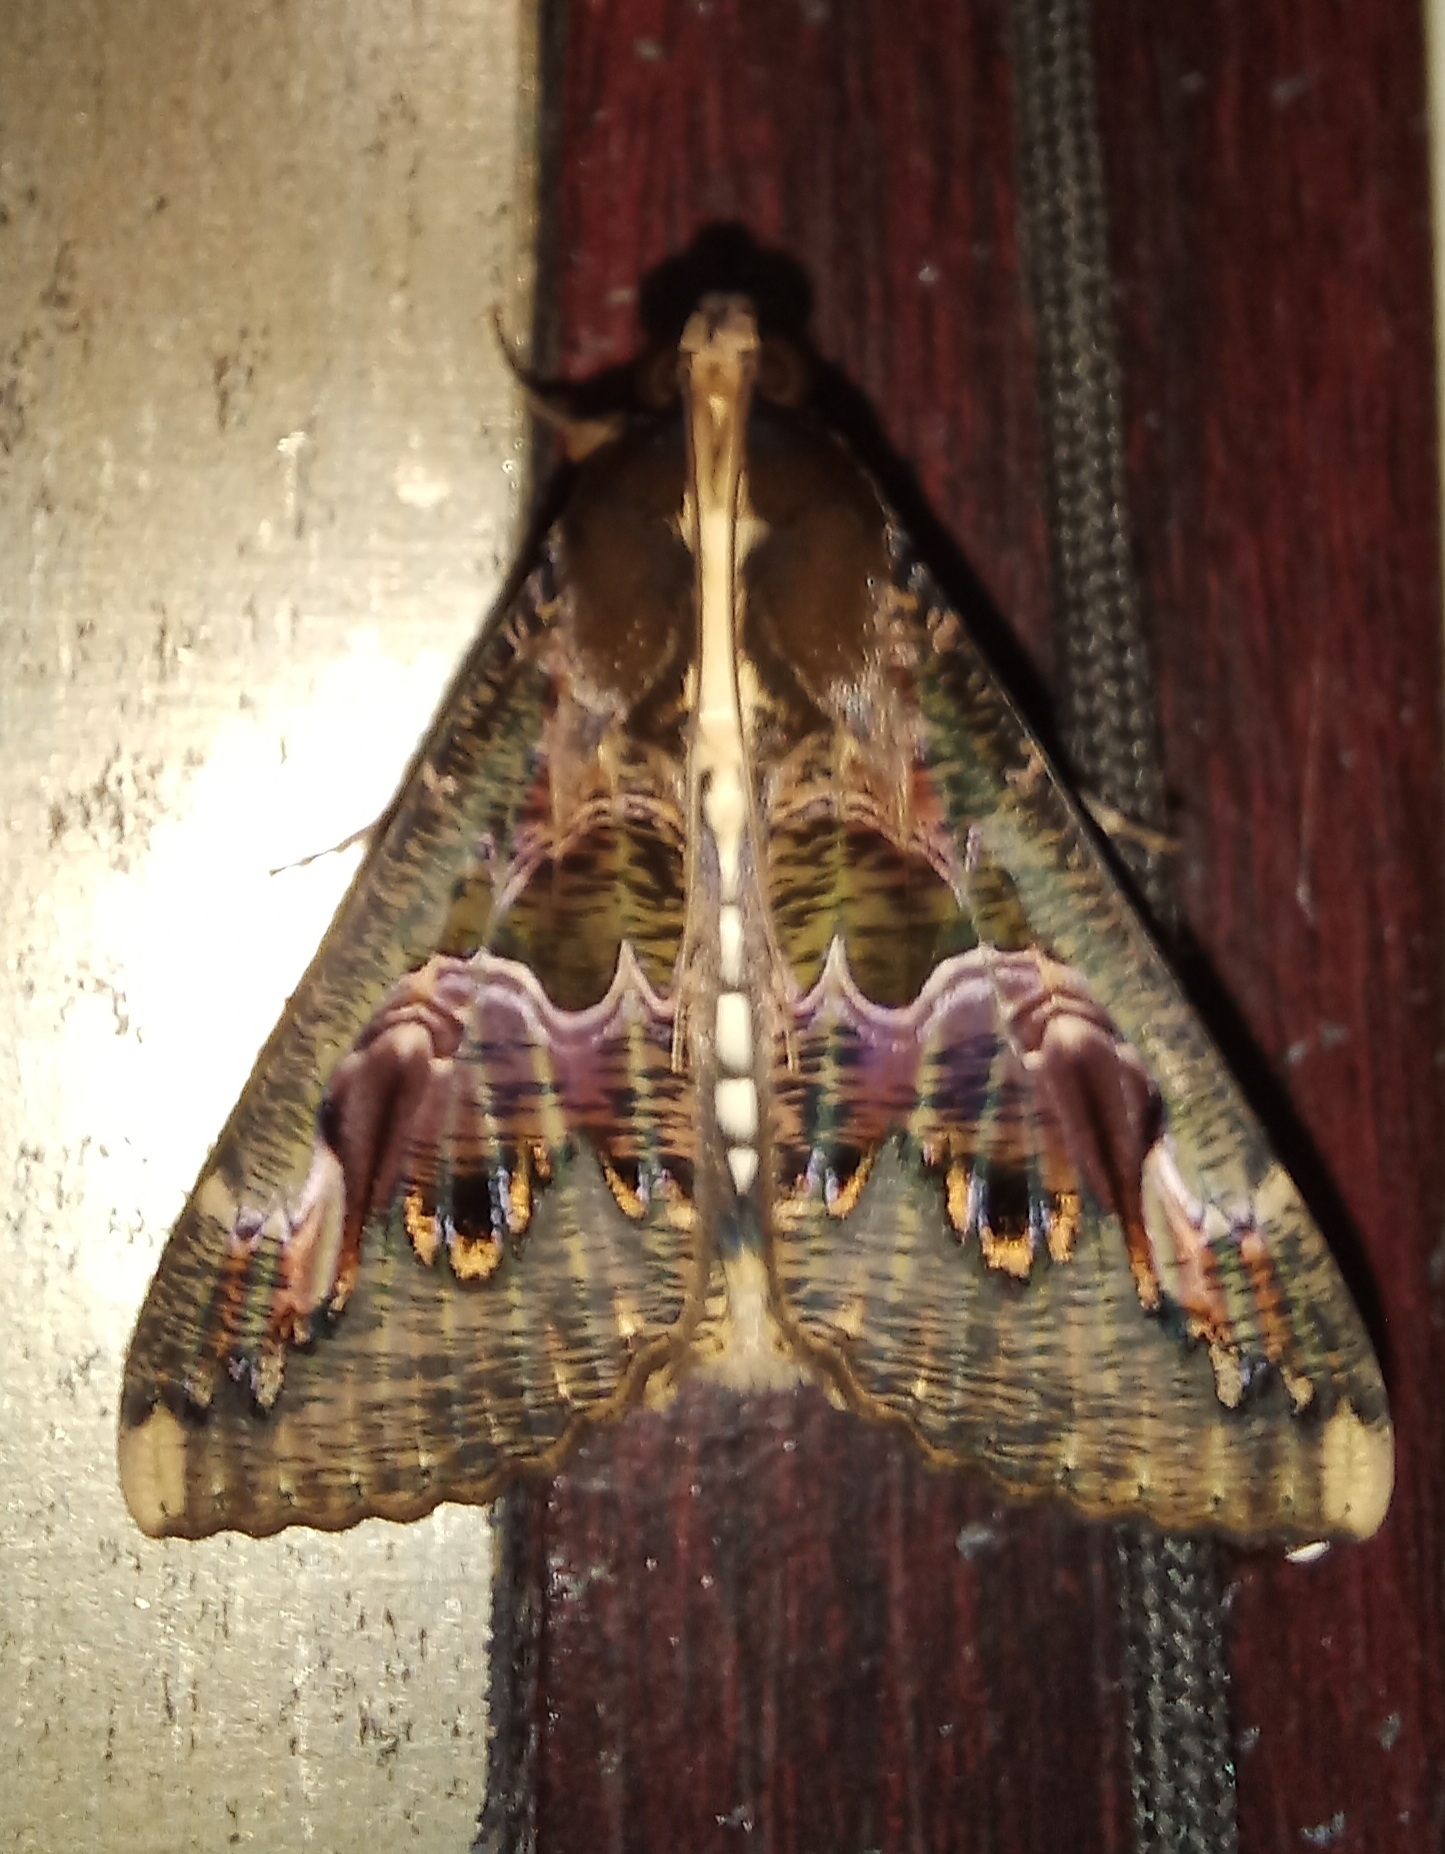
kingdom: Animalia
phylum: Arthropoda
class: Insecta
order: Lepidoptera
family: Erebidae
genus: Sphingomorpha
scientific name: Sphingomorpha chlorea
